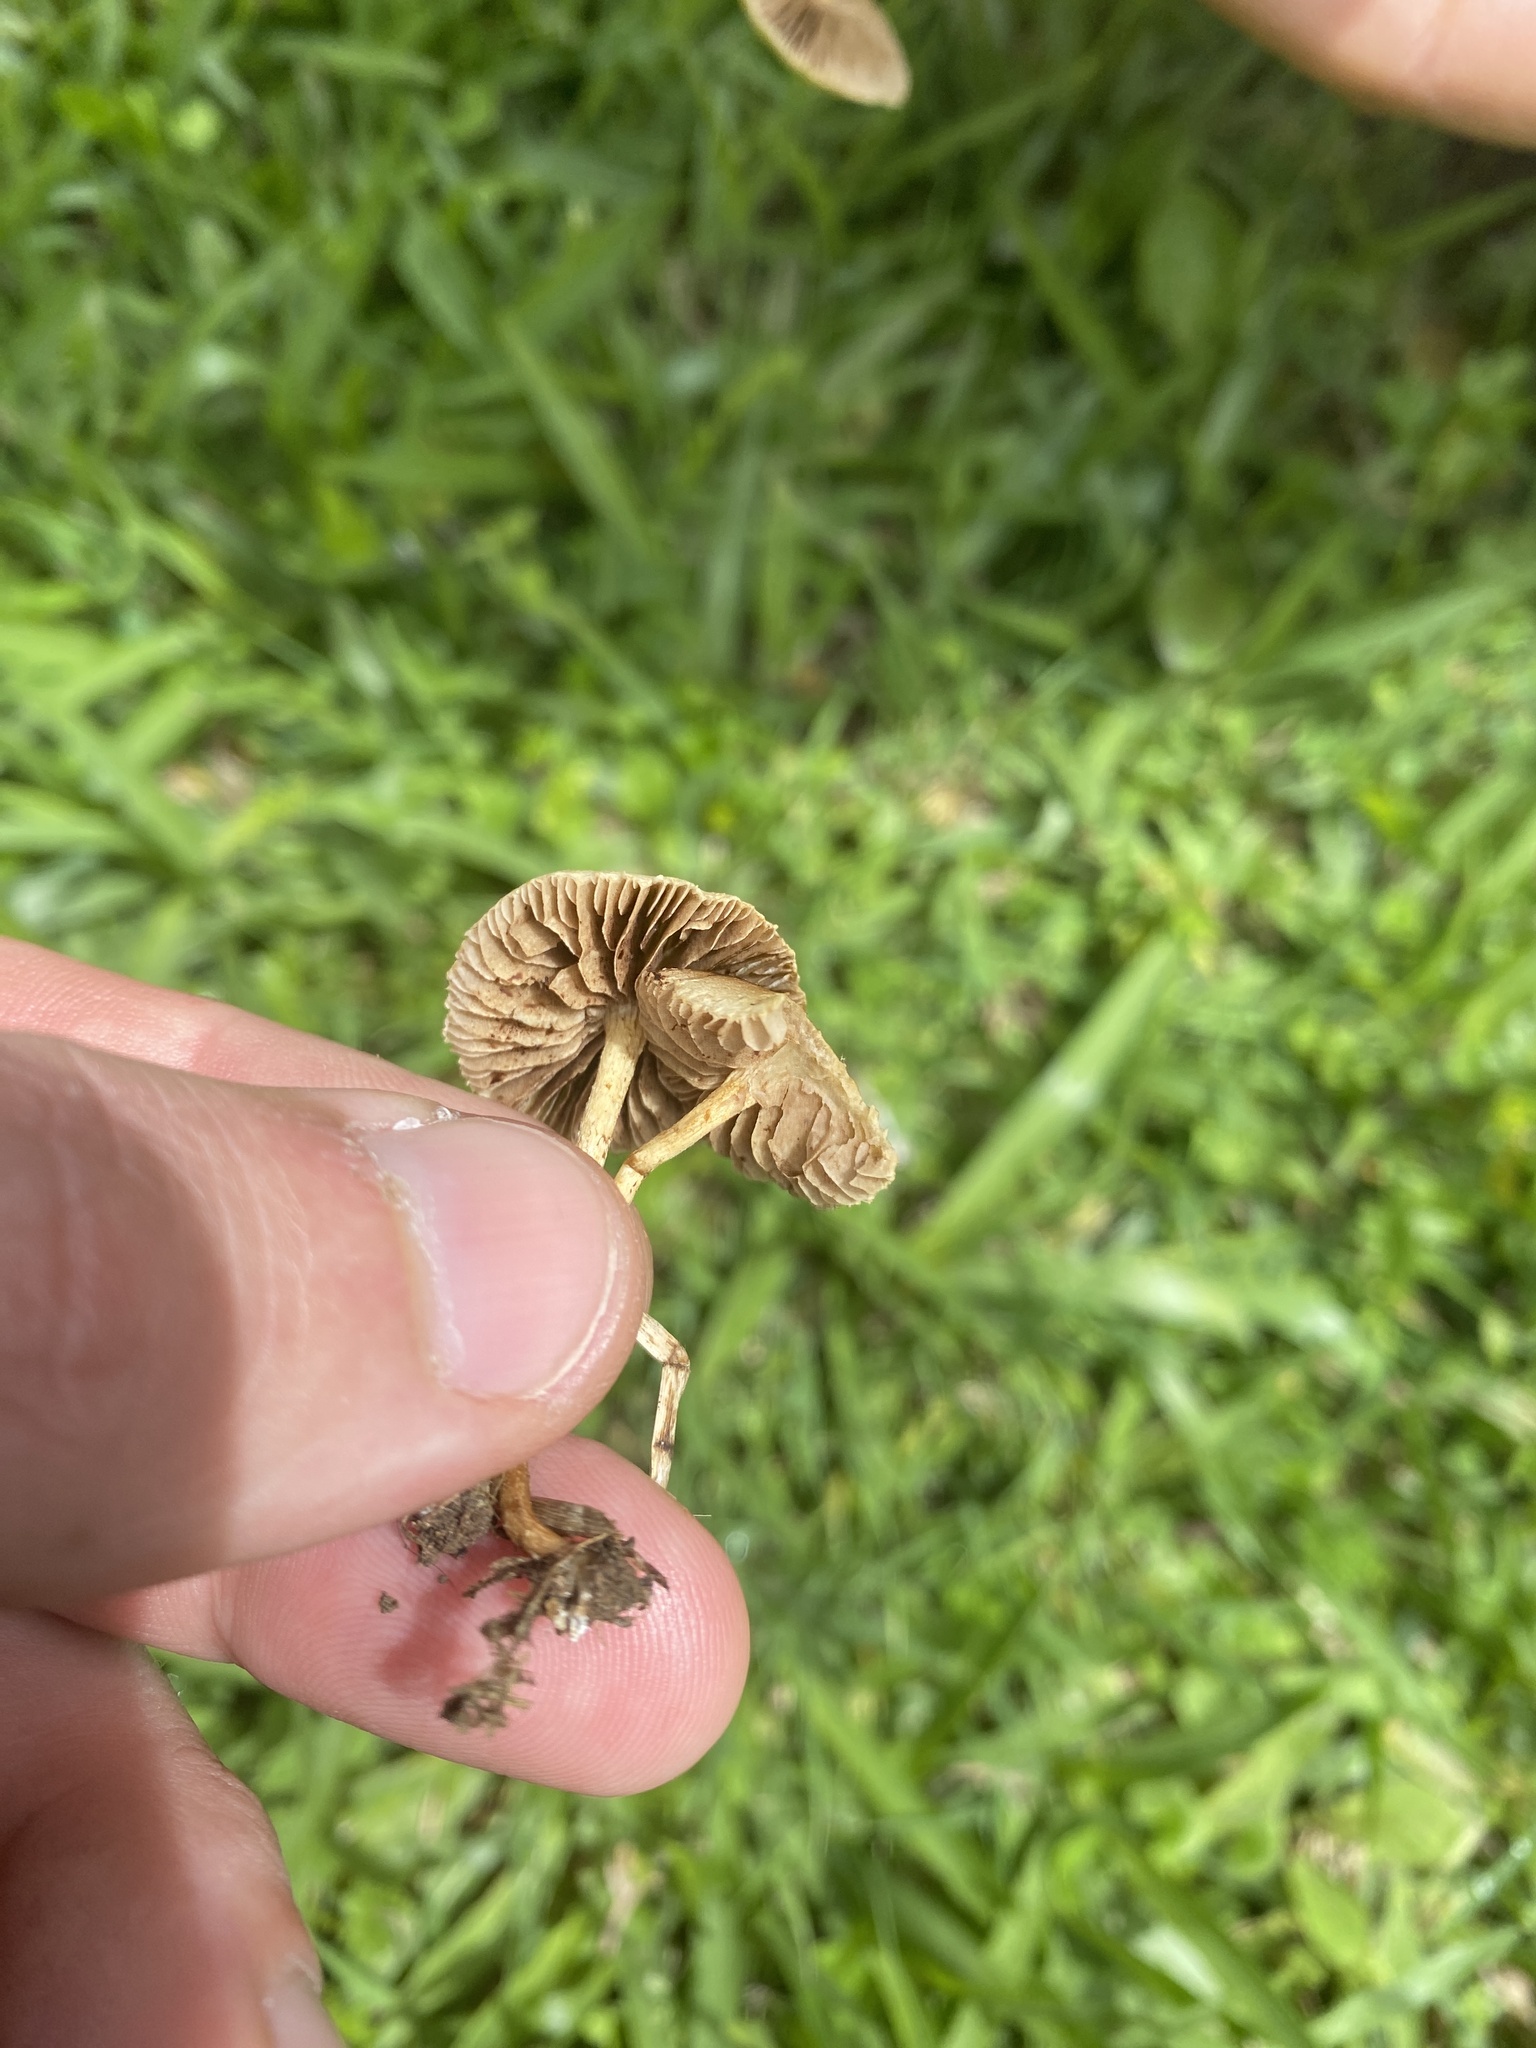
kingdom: Fungi
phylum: Basidiomycota
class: Agaricomycetes
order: Agaricales
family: Strophariaceae
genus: Agrocybe
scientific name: Agrocybe pediades
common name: Common fieldcap
